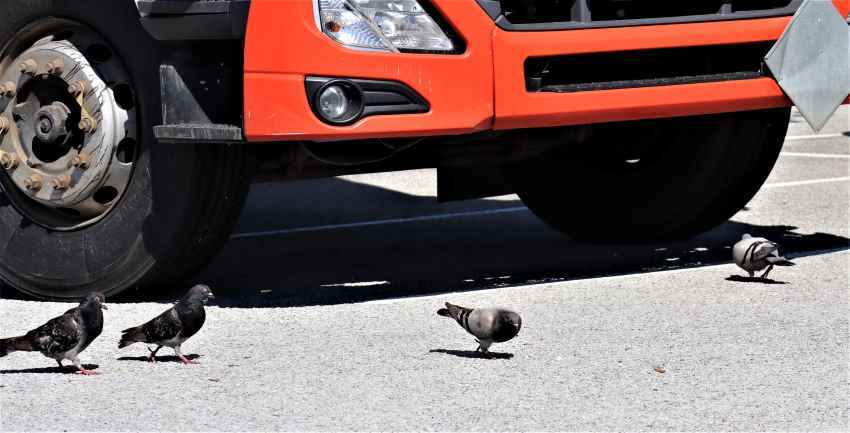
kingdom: Animalia
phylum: Chordata
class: Aves
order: Columbiformes
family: Columbidae
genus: Columba
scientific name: Columba livia
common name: Rock pigeon
